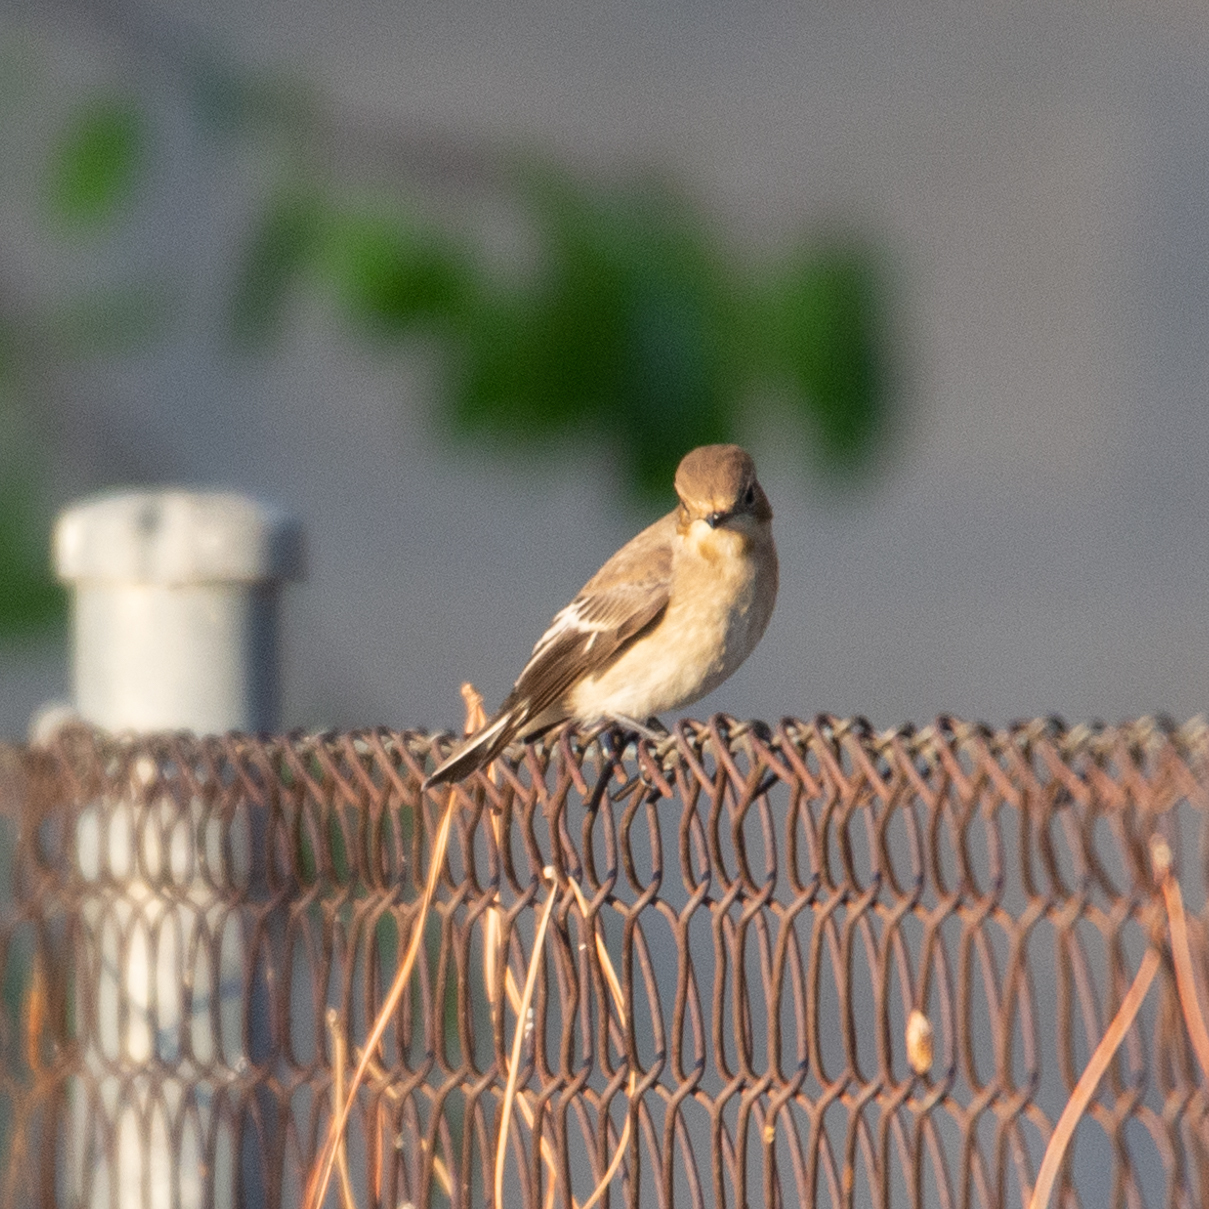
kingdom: Animalia
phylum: Chordata
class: Aves
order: Passeriformes
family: Muscicapidae
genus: Ficedula
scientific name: Ficedula hypoleuca
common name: European pied flycatcher
